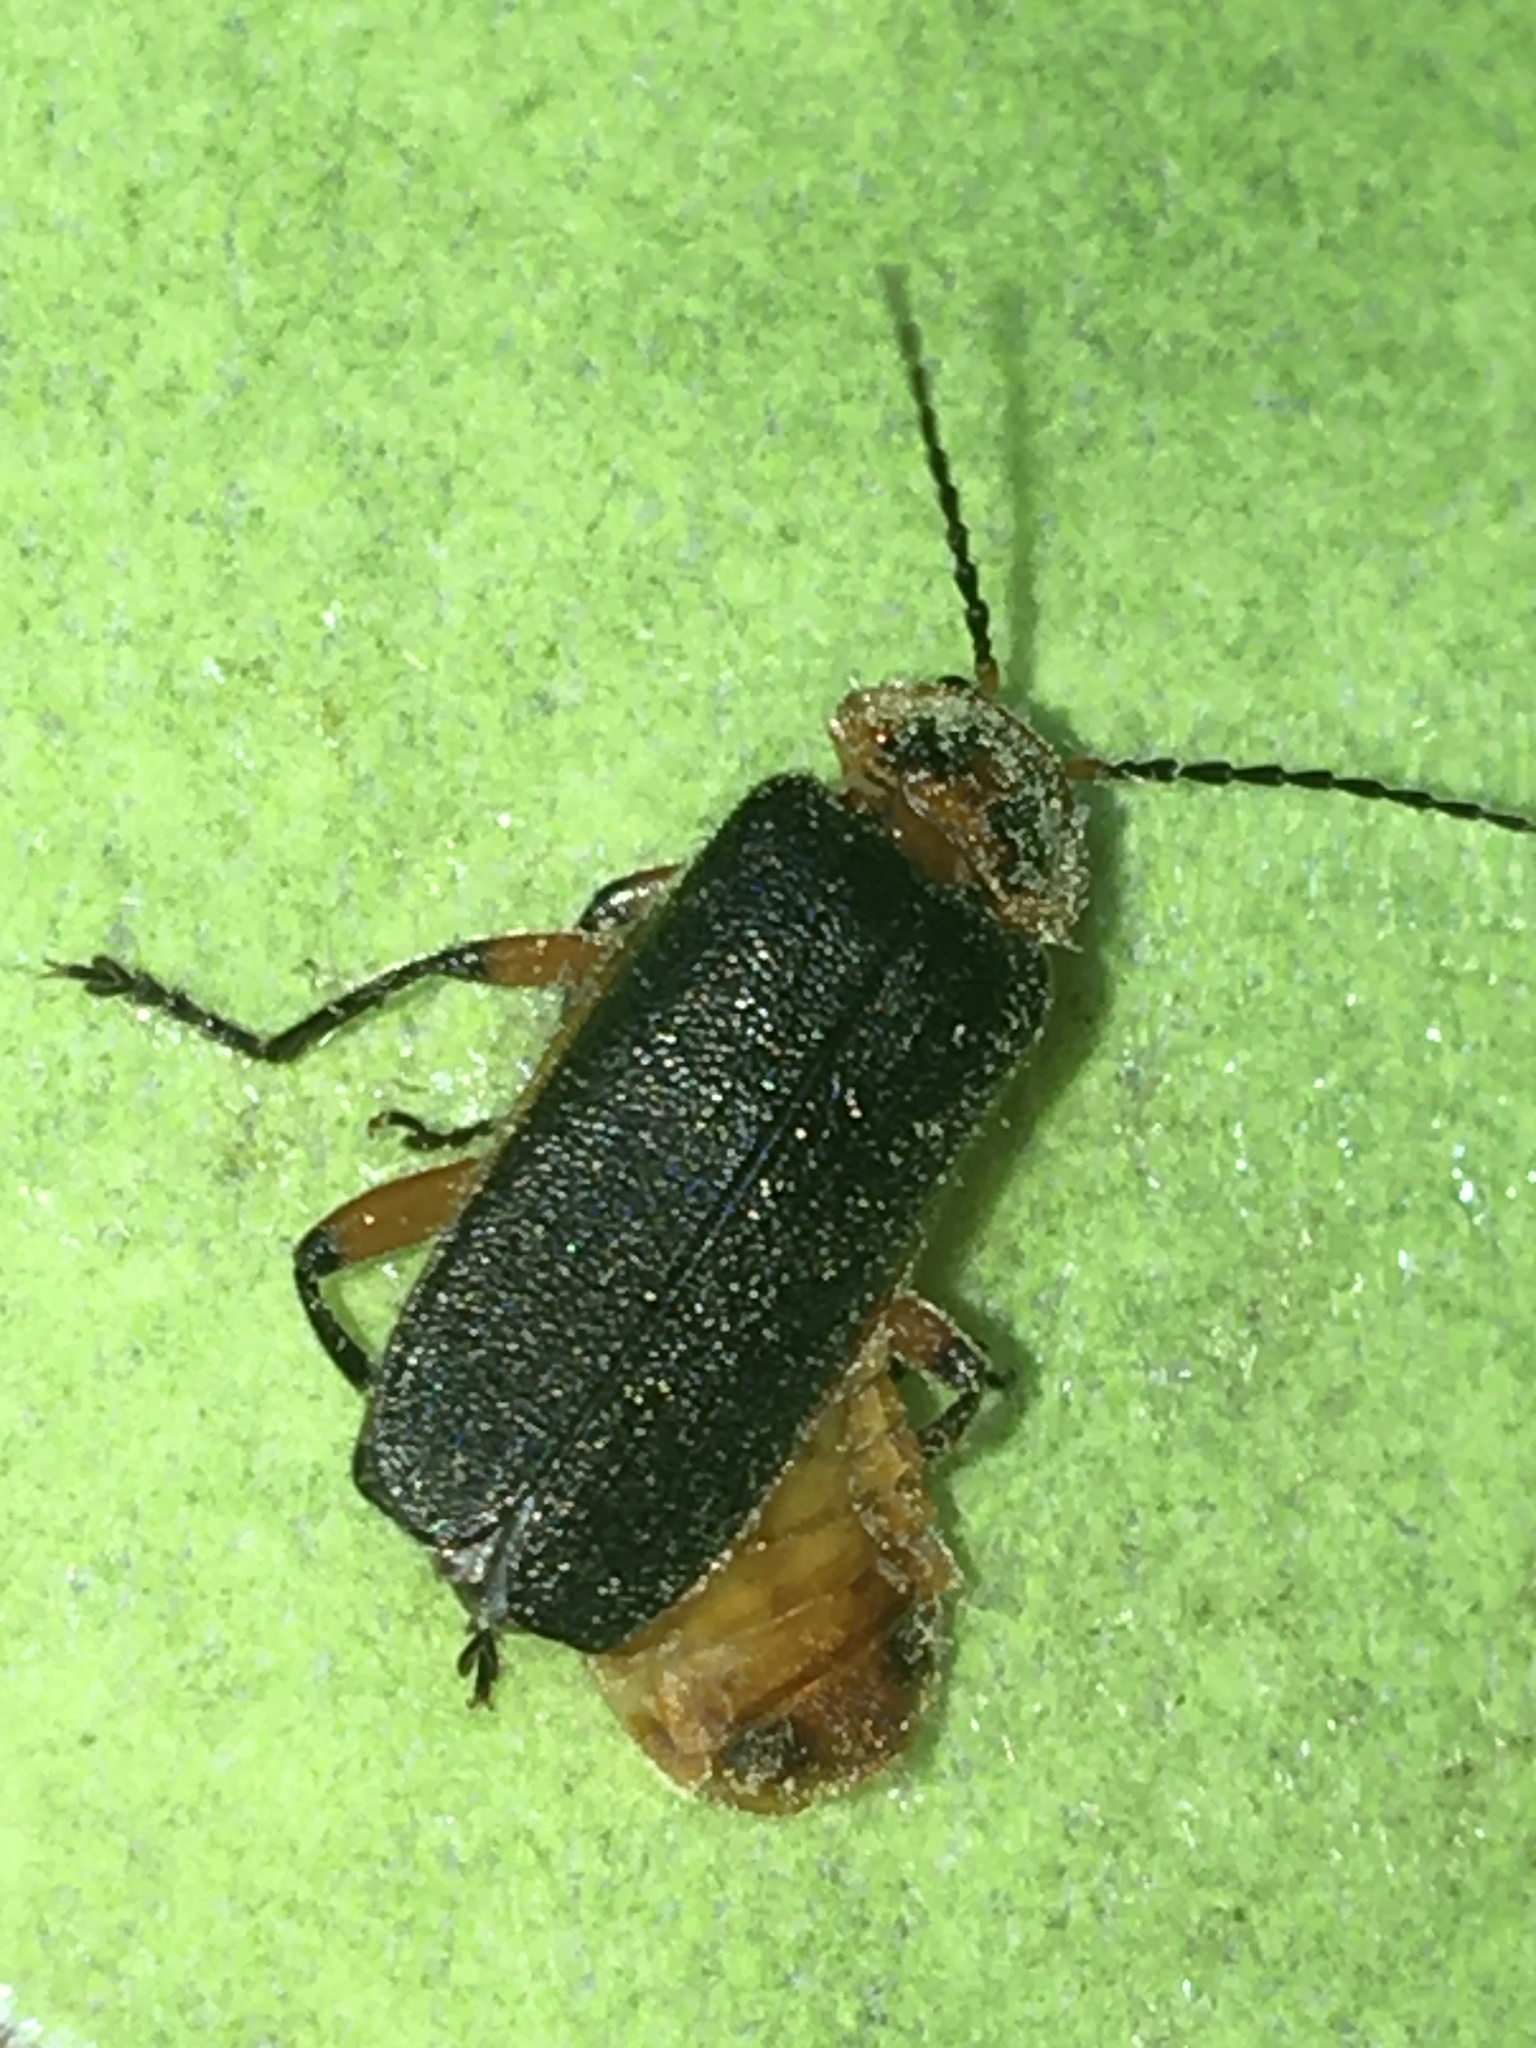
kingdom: Animalia
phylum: Arthropoda
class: Insecta
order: Coleoptera
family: Cantharidae
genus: Atalantycha
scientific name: Atalantycha bilineata
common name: Two-lined leatherwing
